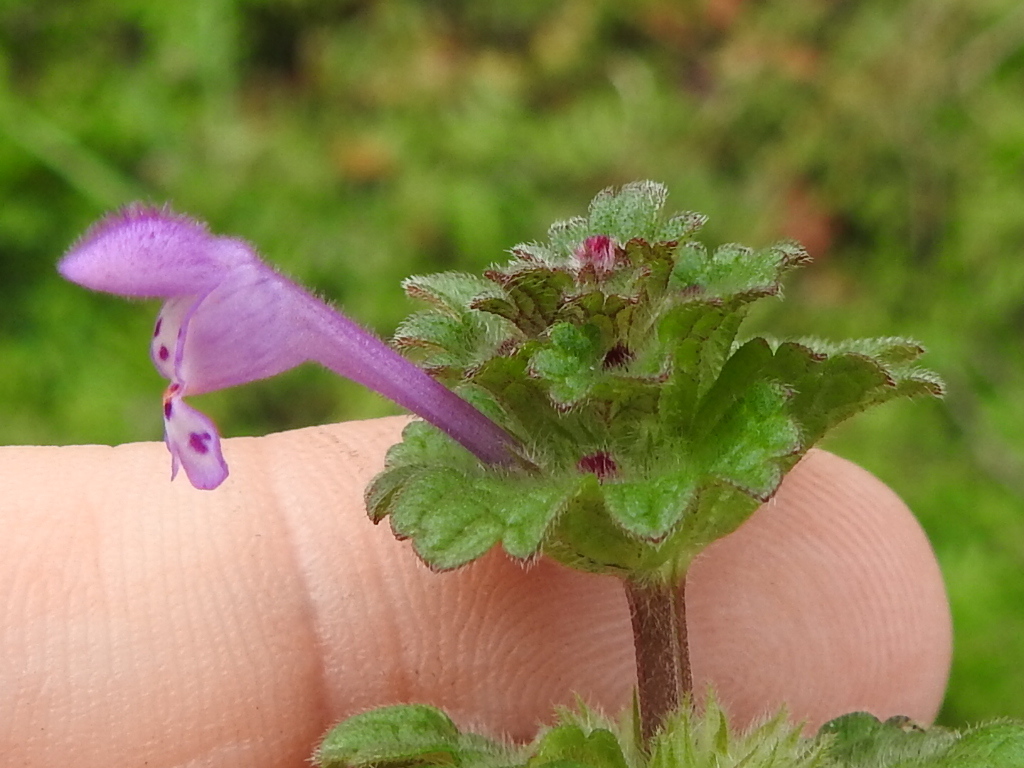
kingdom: Plantae
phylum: Tracheophyta
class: Magnoliopsida
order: Lamiales
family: Lamiaceae
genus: Lamium
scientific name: Lamium amplexicaule
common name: Henbit dead-nettle
